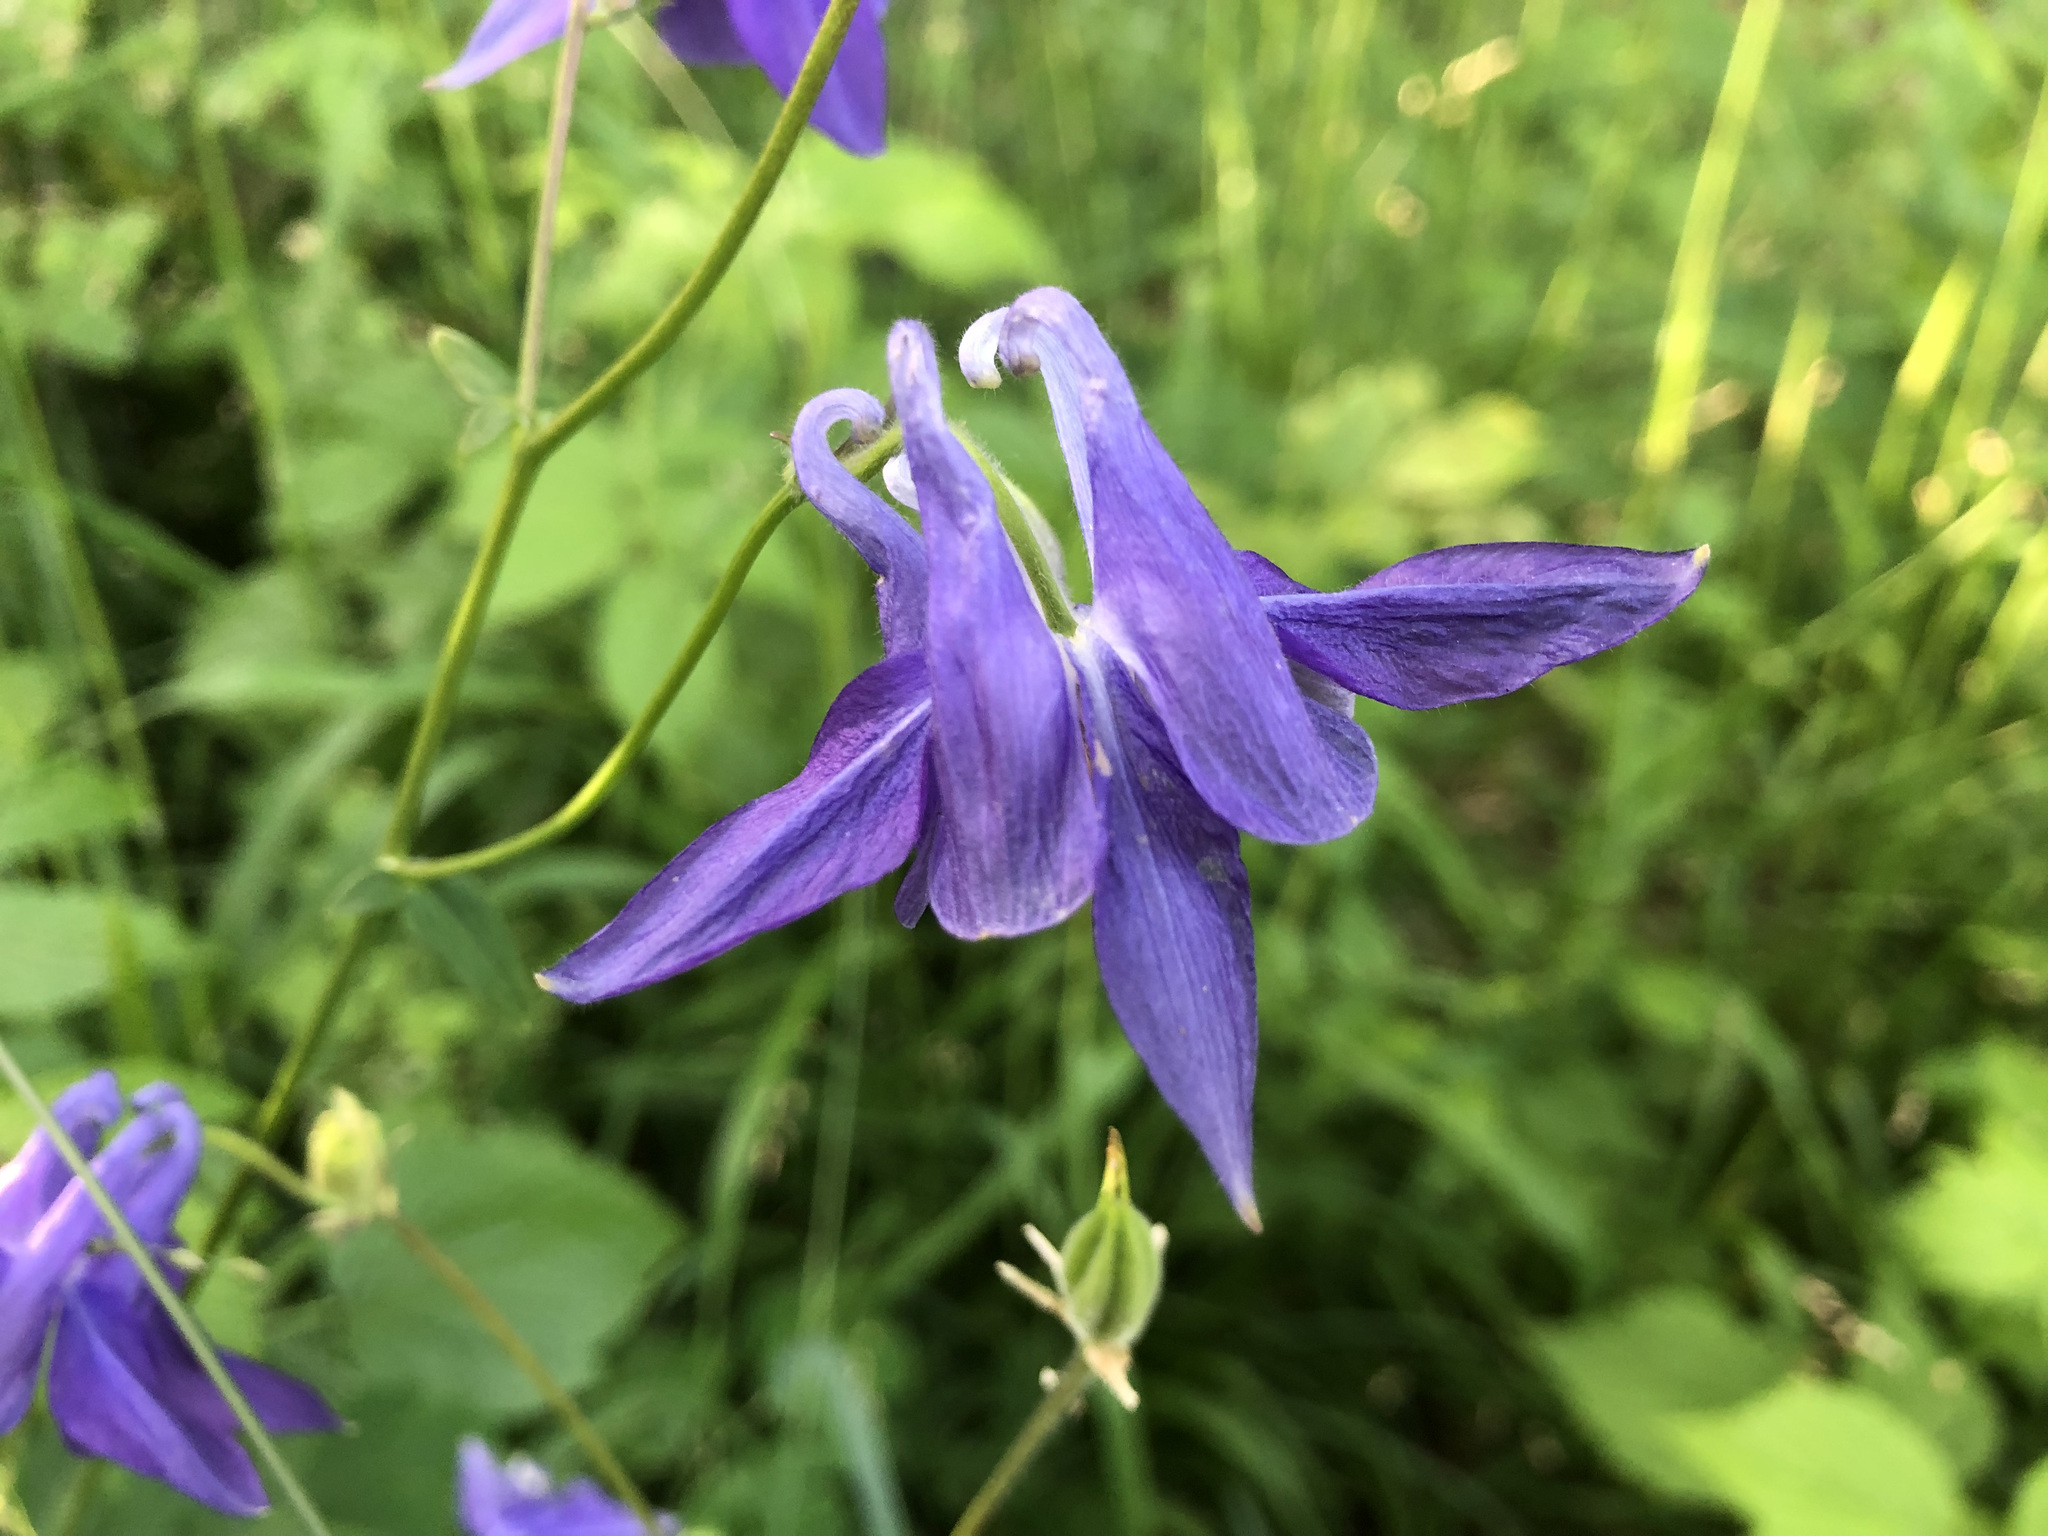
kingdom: Plantae
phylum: Tracheophyta
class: Magnoliopsida
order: Ranunculales
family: Ranunculaceae
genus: Aquilegia
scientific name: Aquilegia vulgaris
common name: Columbine
